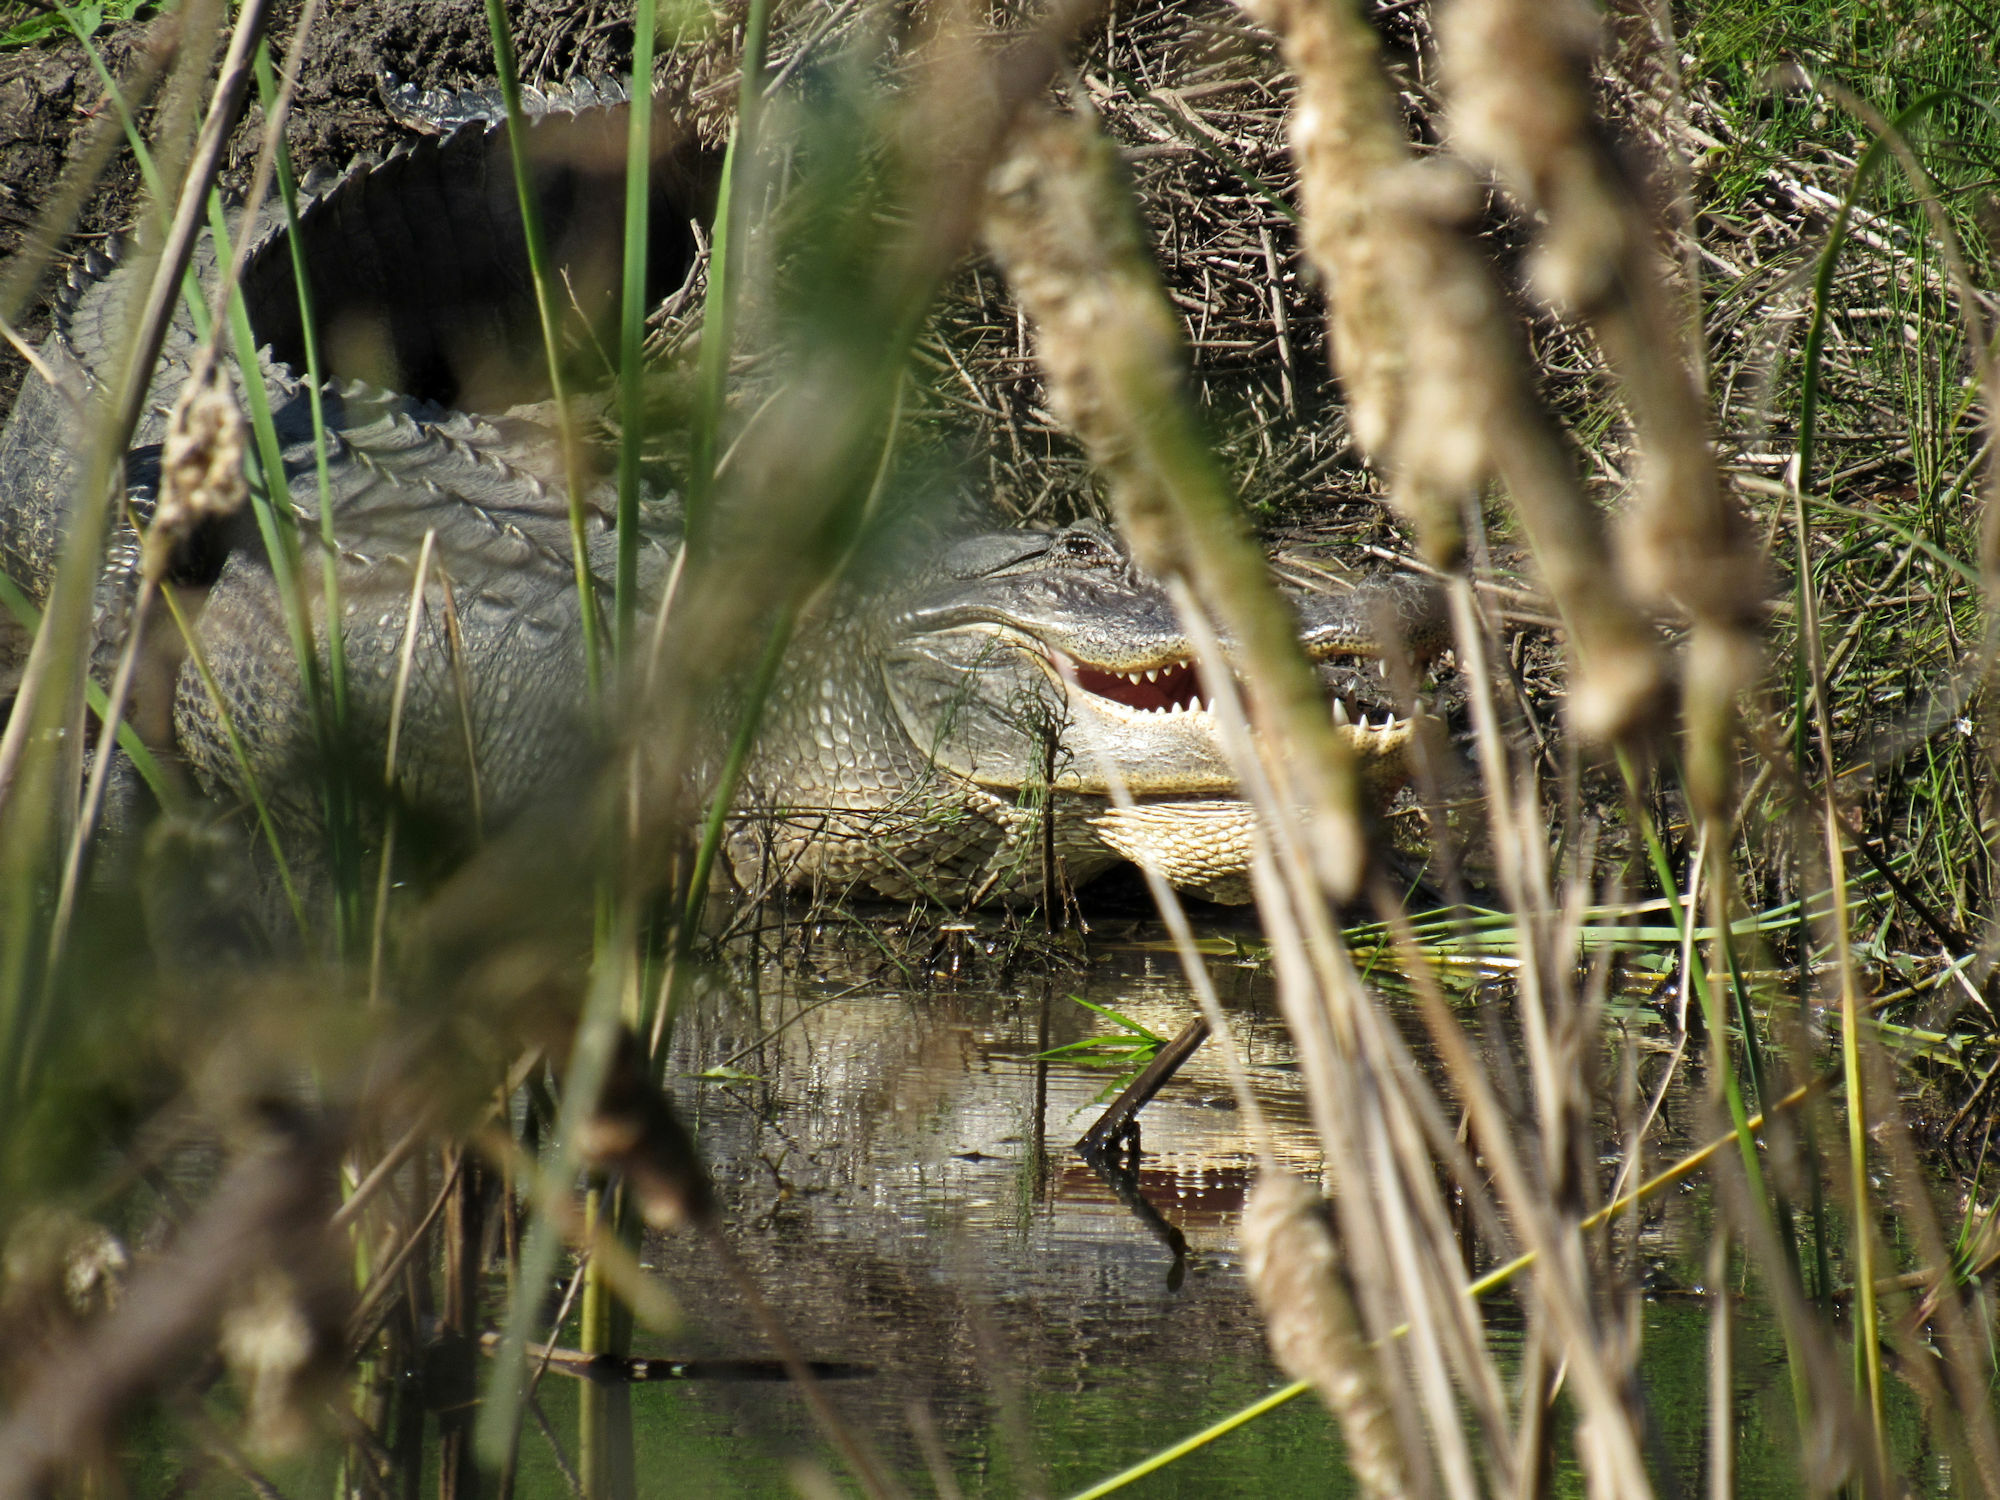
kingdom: Animalia
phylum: Chordata
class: Crocodylia
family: Alligatoridae
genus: Alligator
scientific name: Alligator mississippiensis
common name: American alligator
